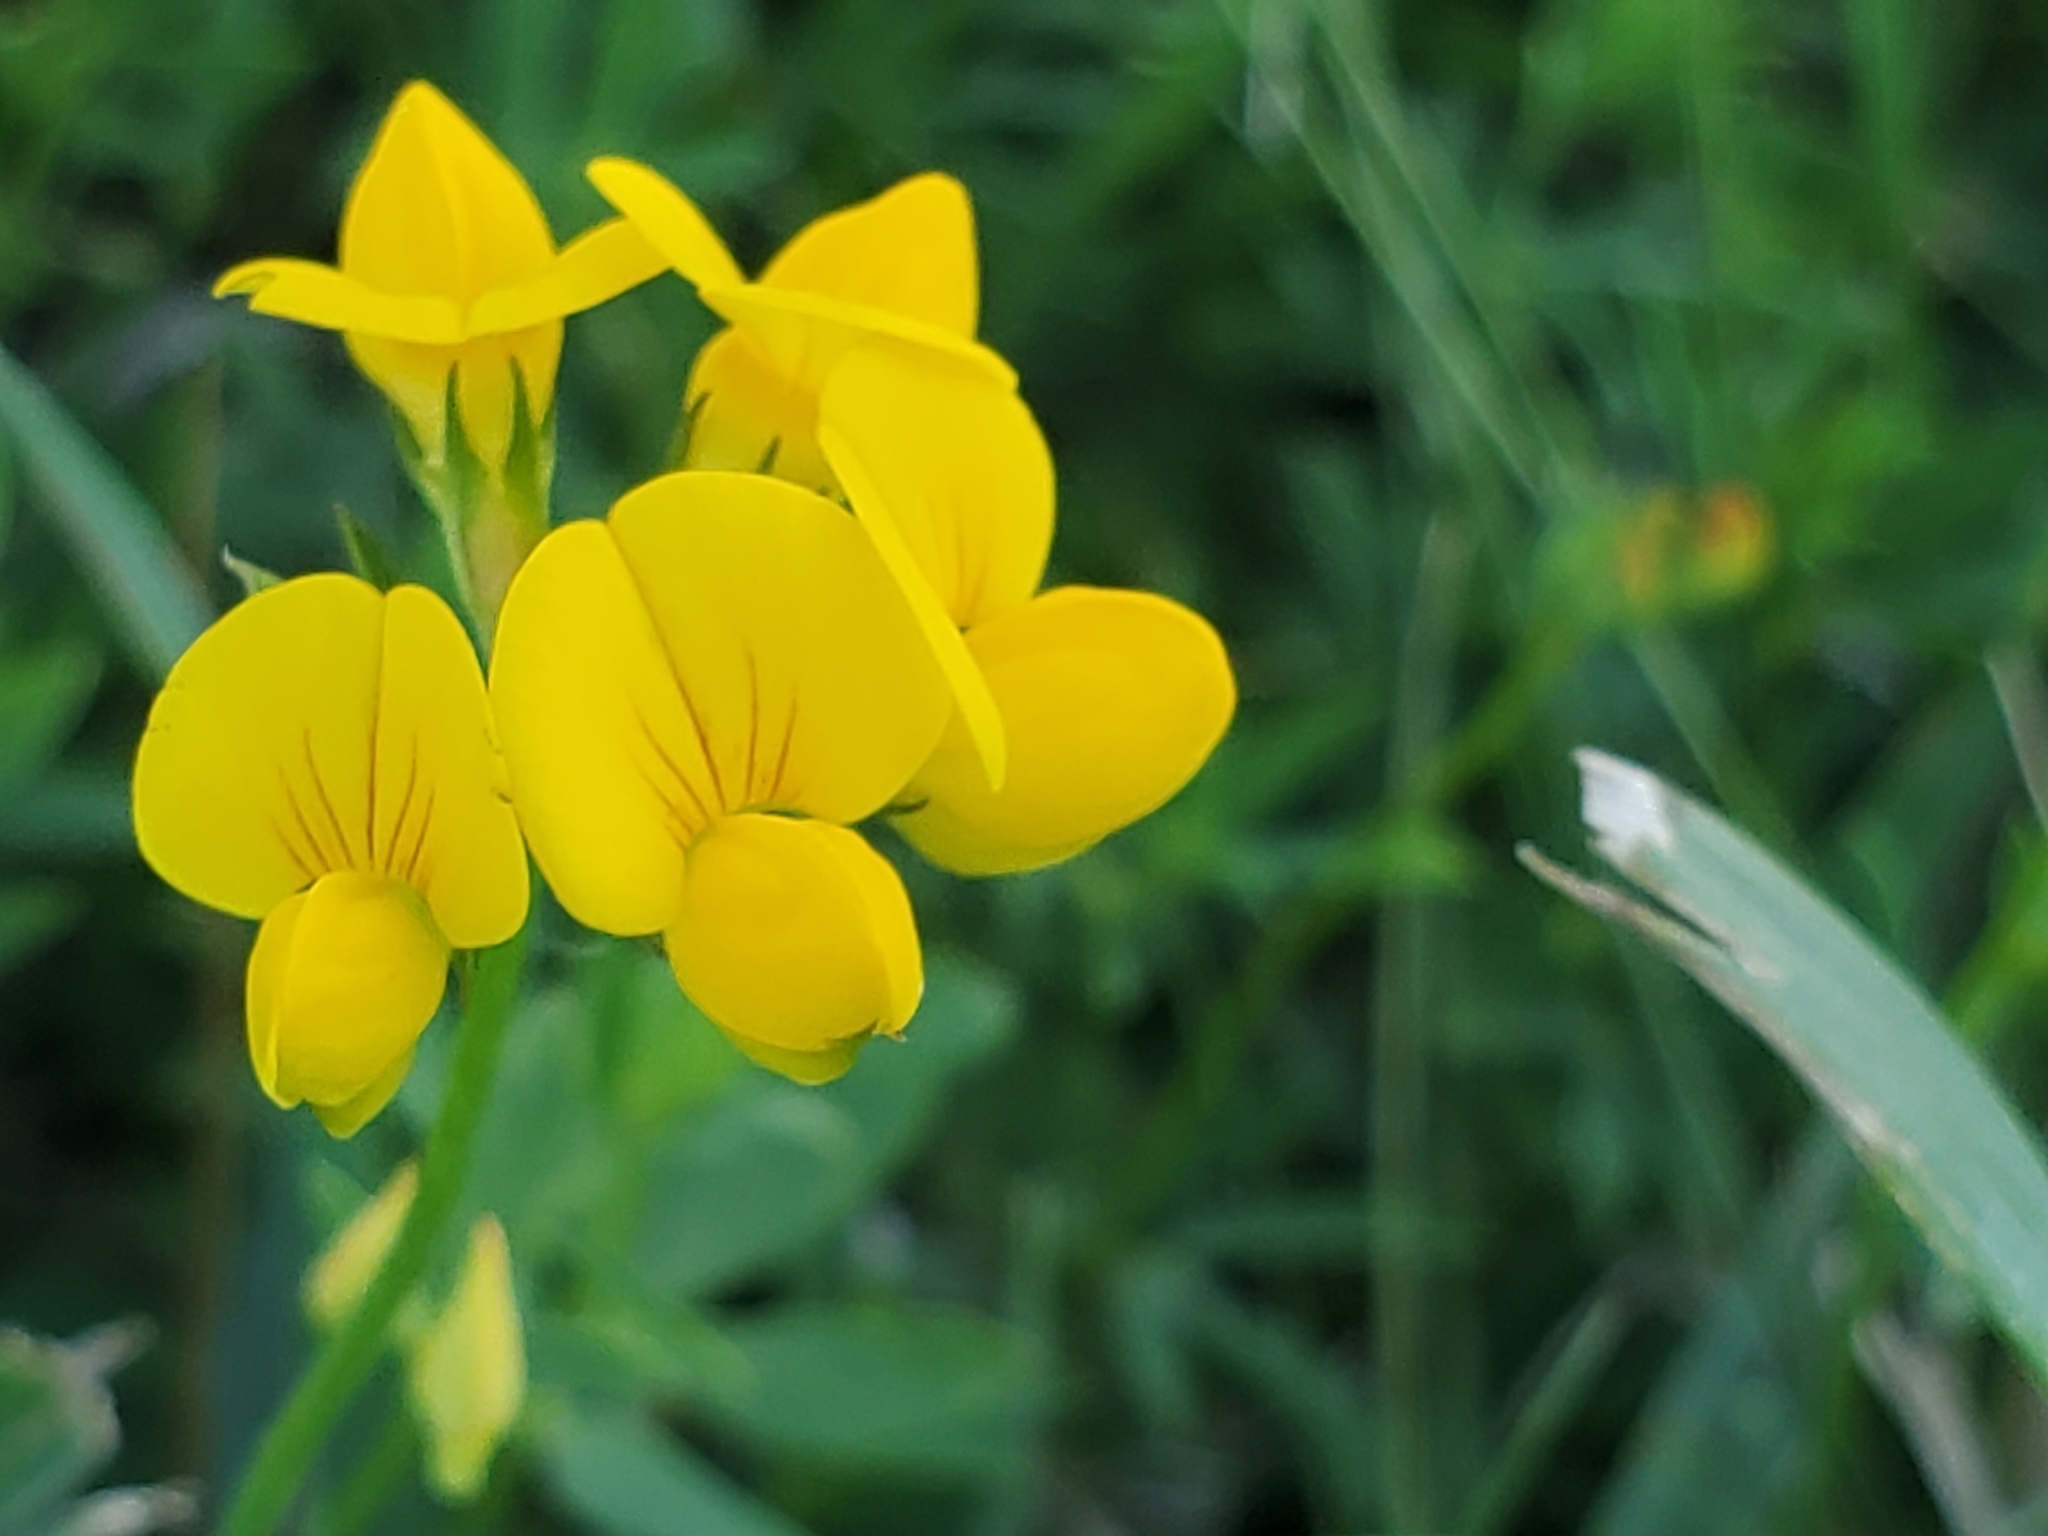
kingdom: Plantae
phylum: Tracheophyta
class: Magnoliopsida
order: Fabales
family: Fabaceae
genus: Lotus
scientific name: Lotus corniculatus
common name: Common bird's-foot-trefoil
